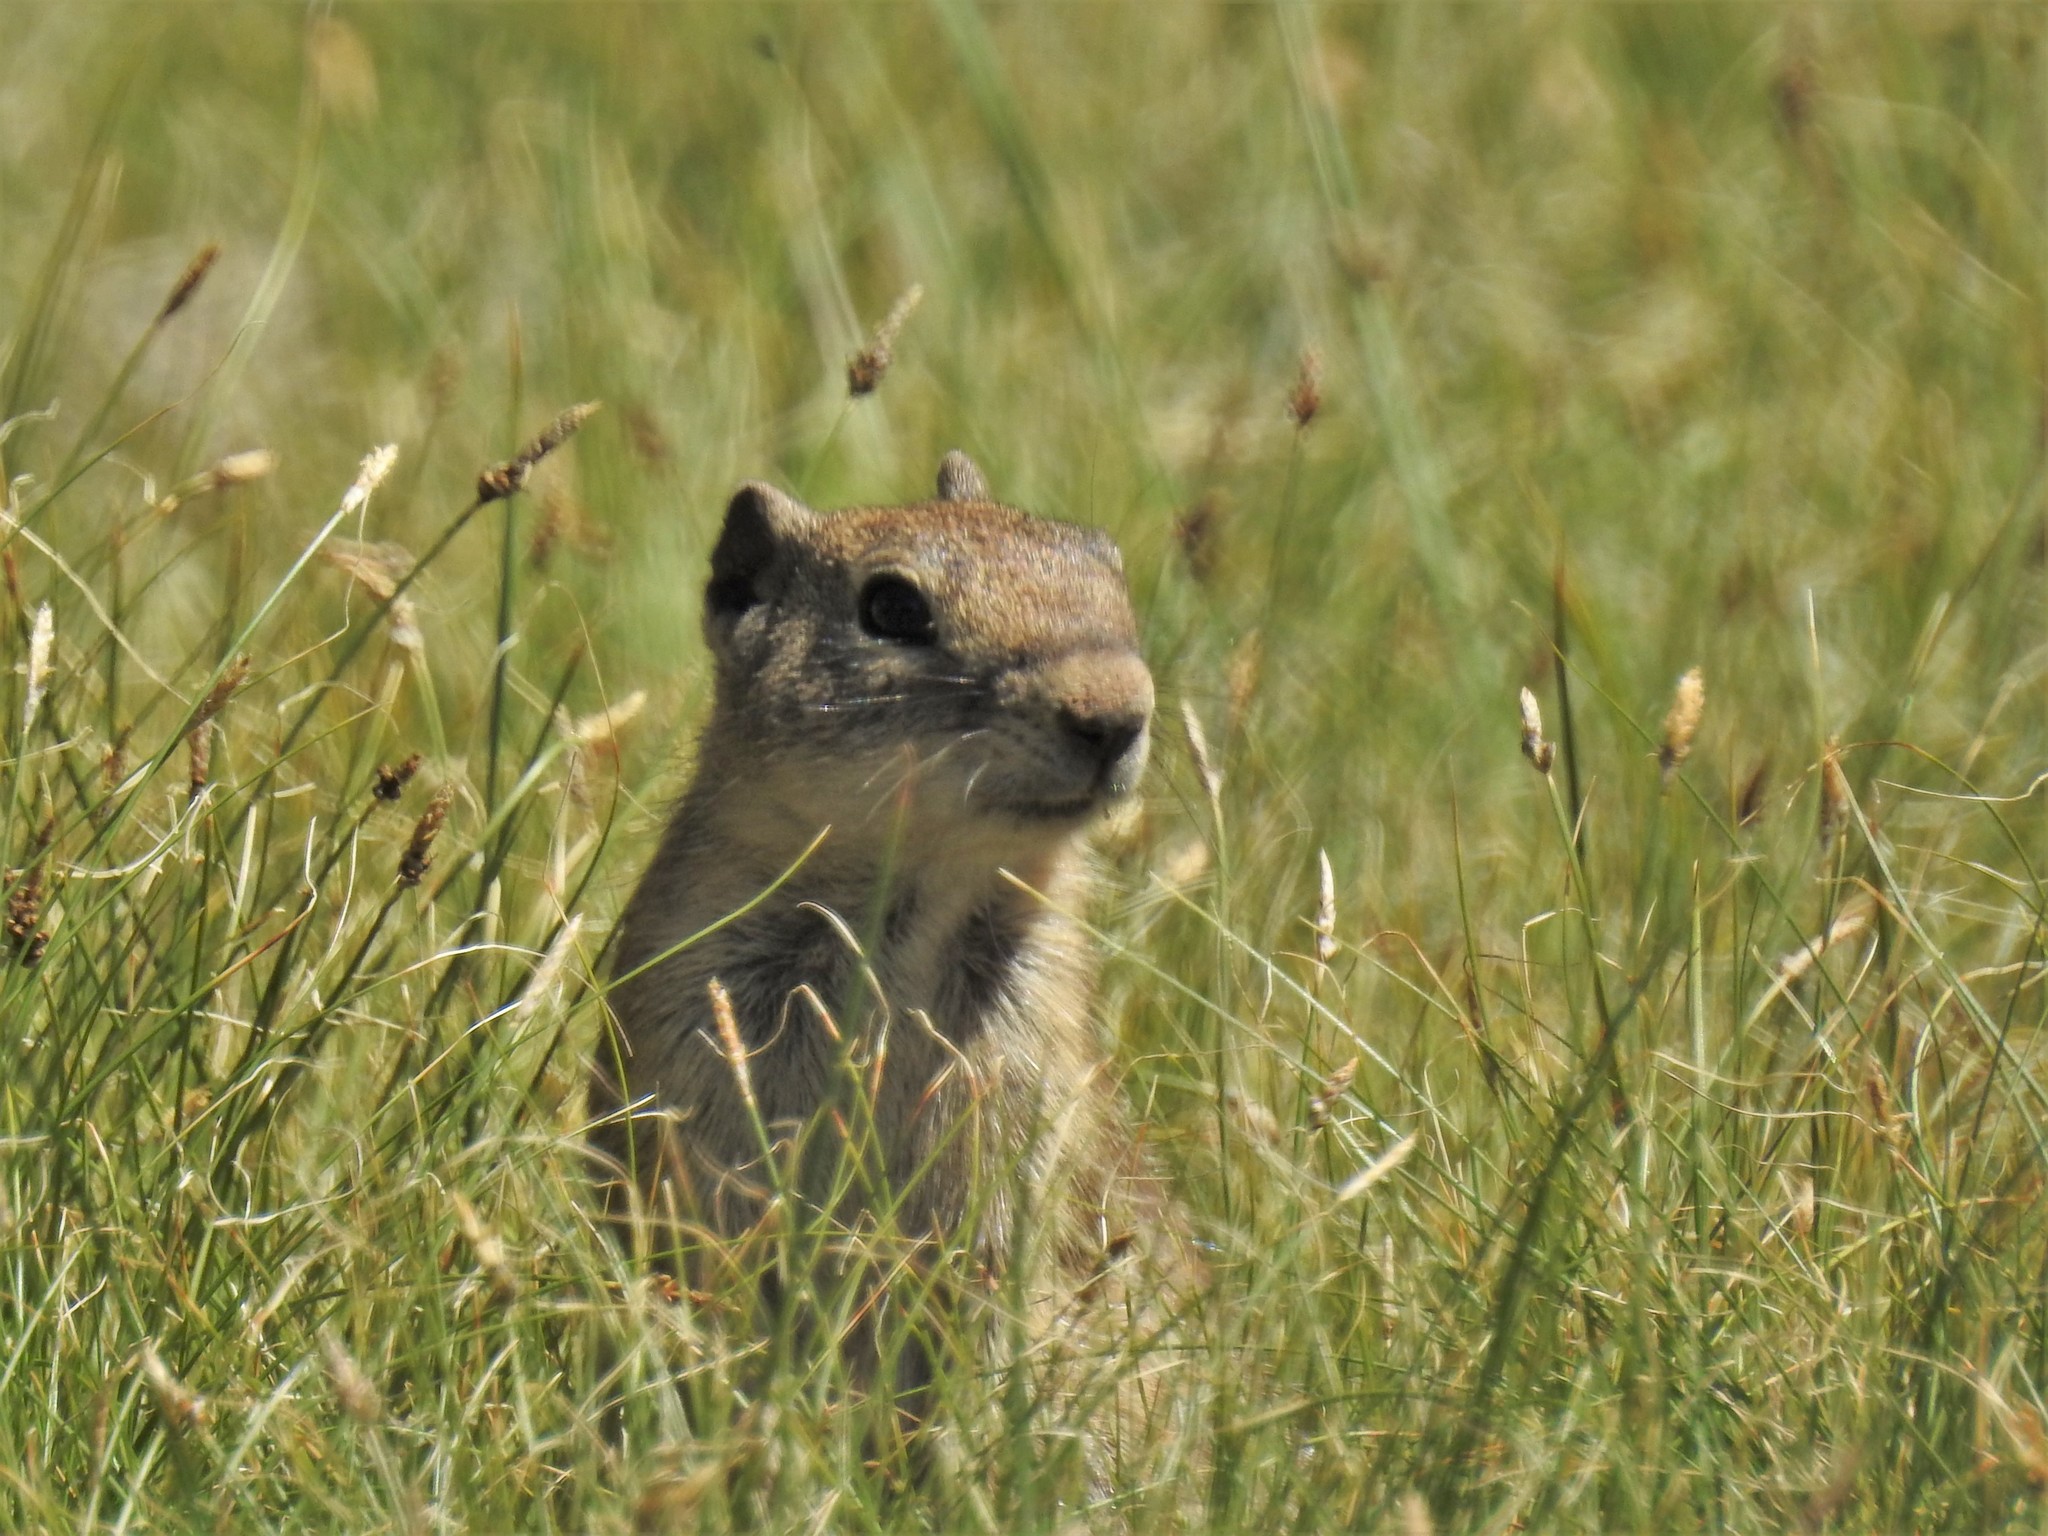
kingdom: Animalia
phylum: Chordata
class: Mammalia
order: Rodentia
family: Sciuridae
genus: Urocitellus
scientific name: Urocitellus beldingi
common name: Belding's ground squirrel
